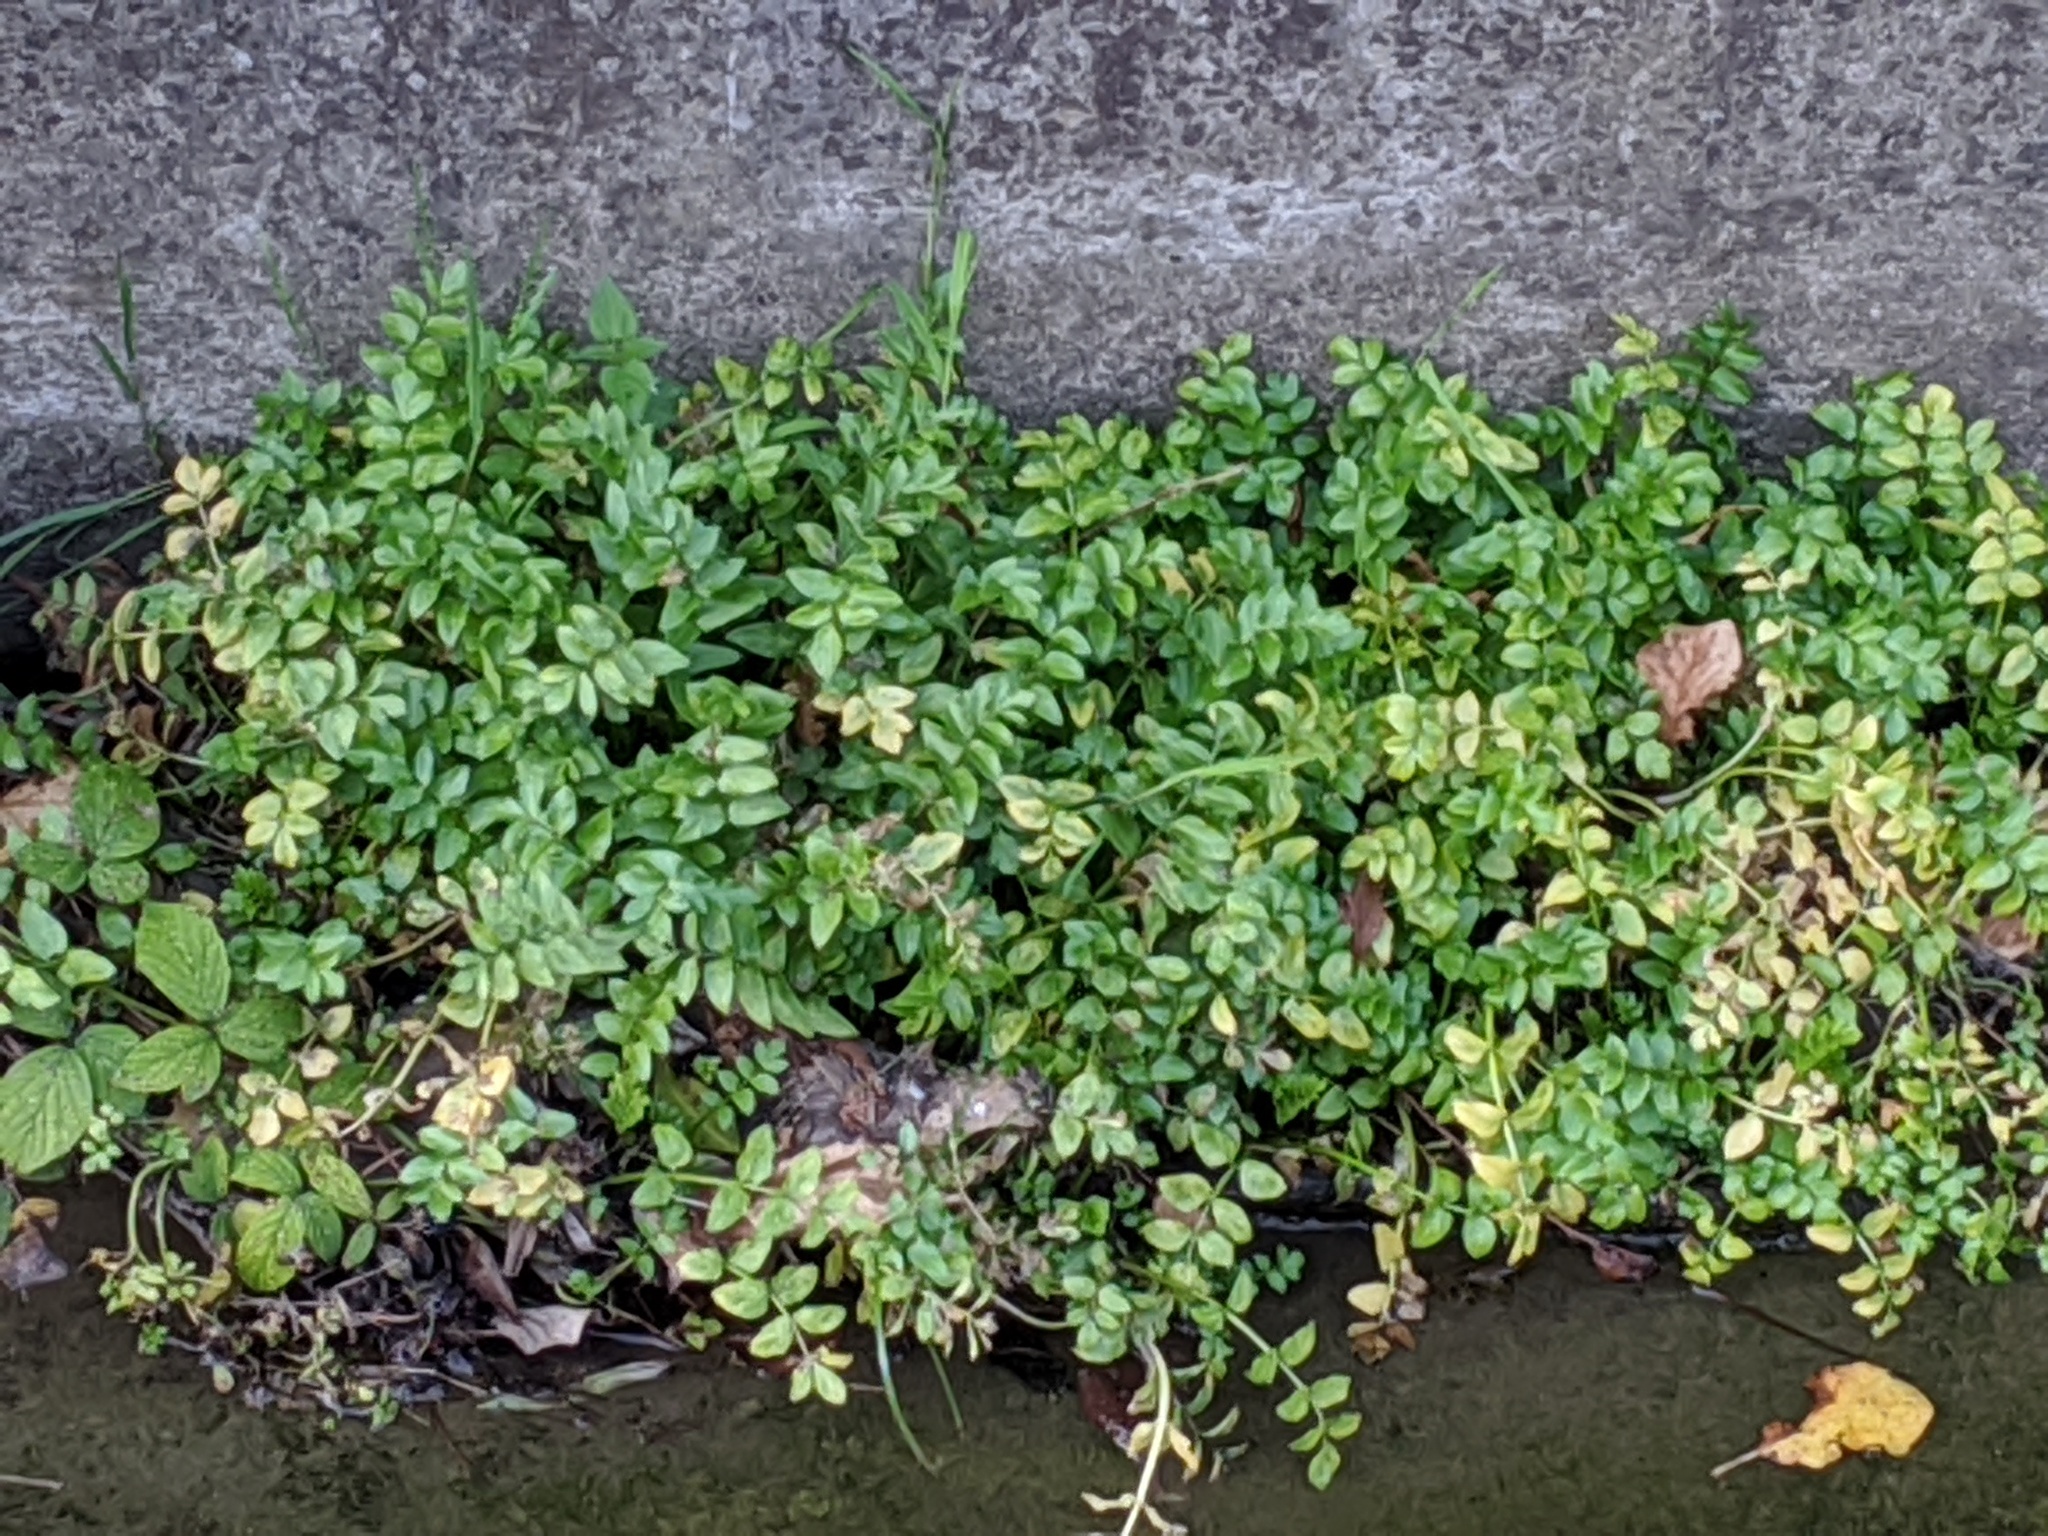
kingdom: Plantae
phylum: Tracheophyta
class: Magnoliopsida
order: Apiales
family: Apiaceae
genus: Helosciadium
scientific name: Helosciadium nodiflorum
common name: Fool's-watercress
